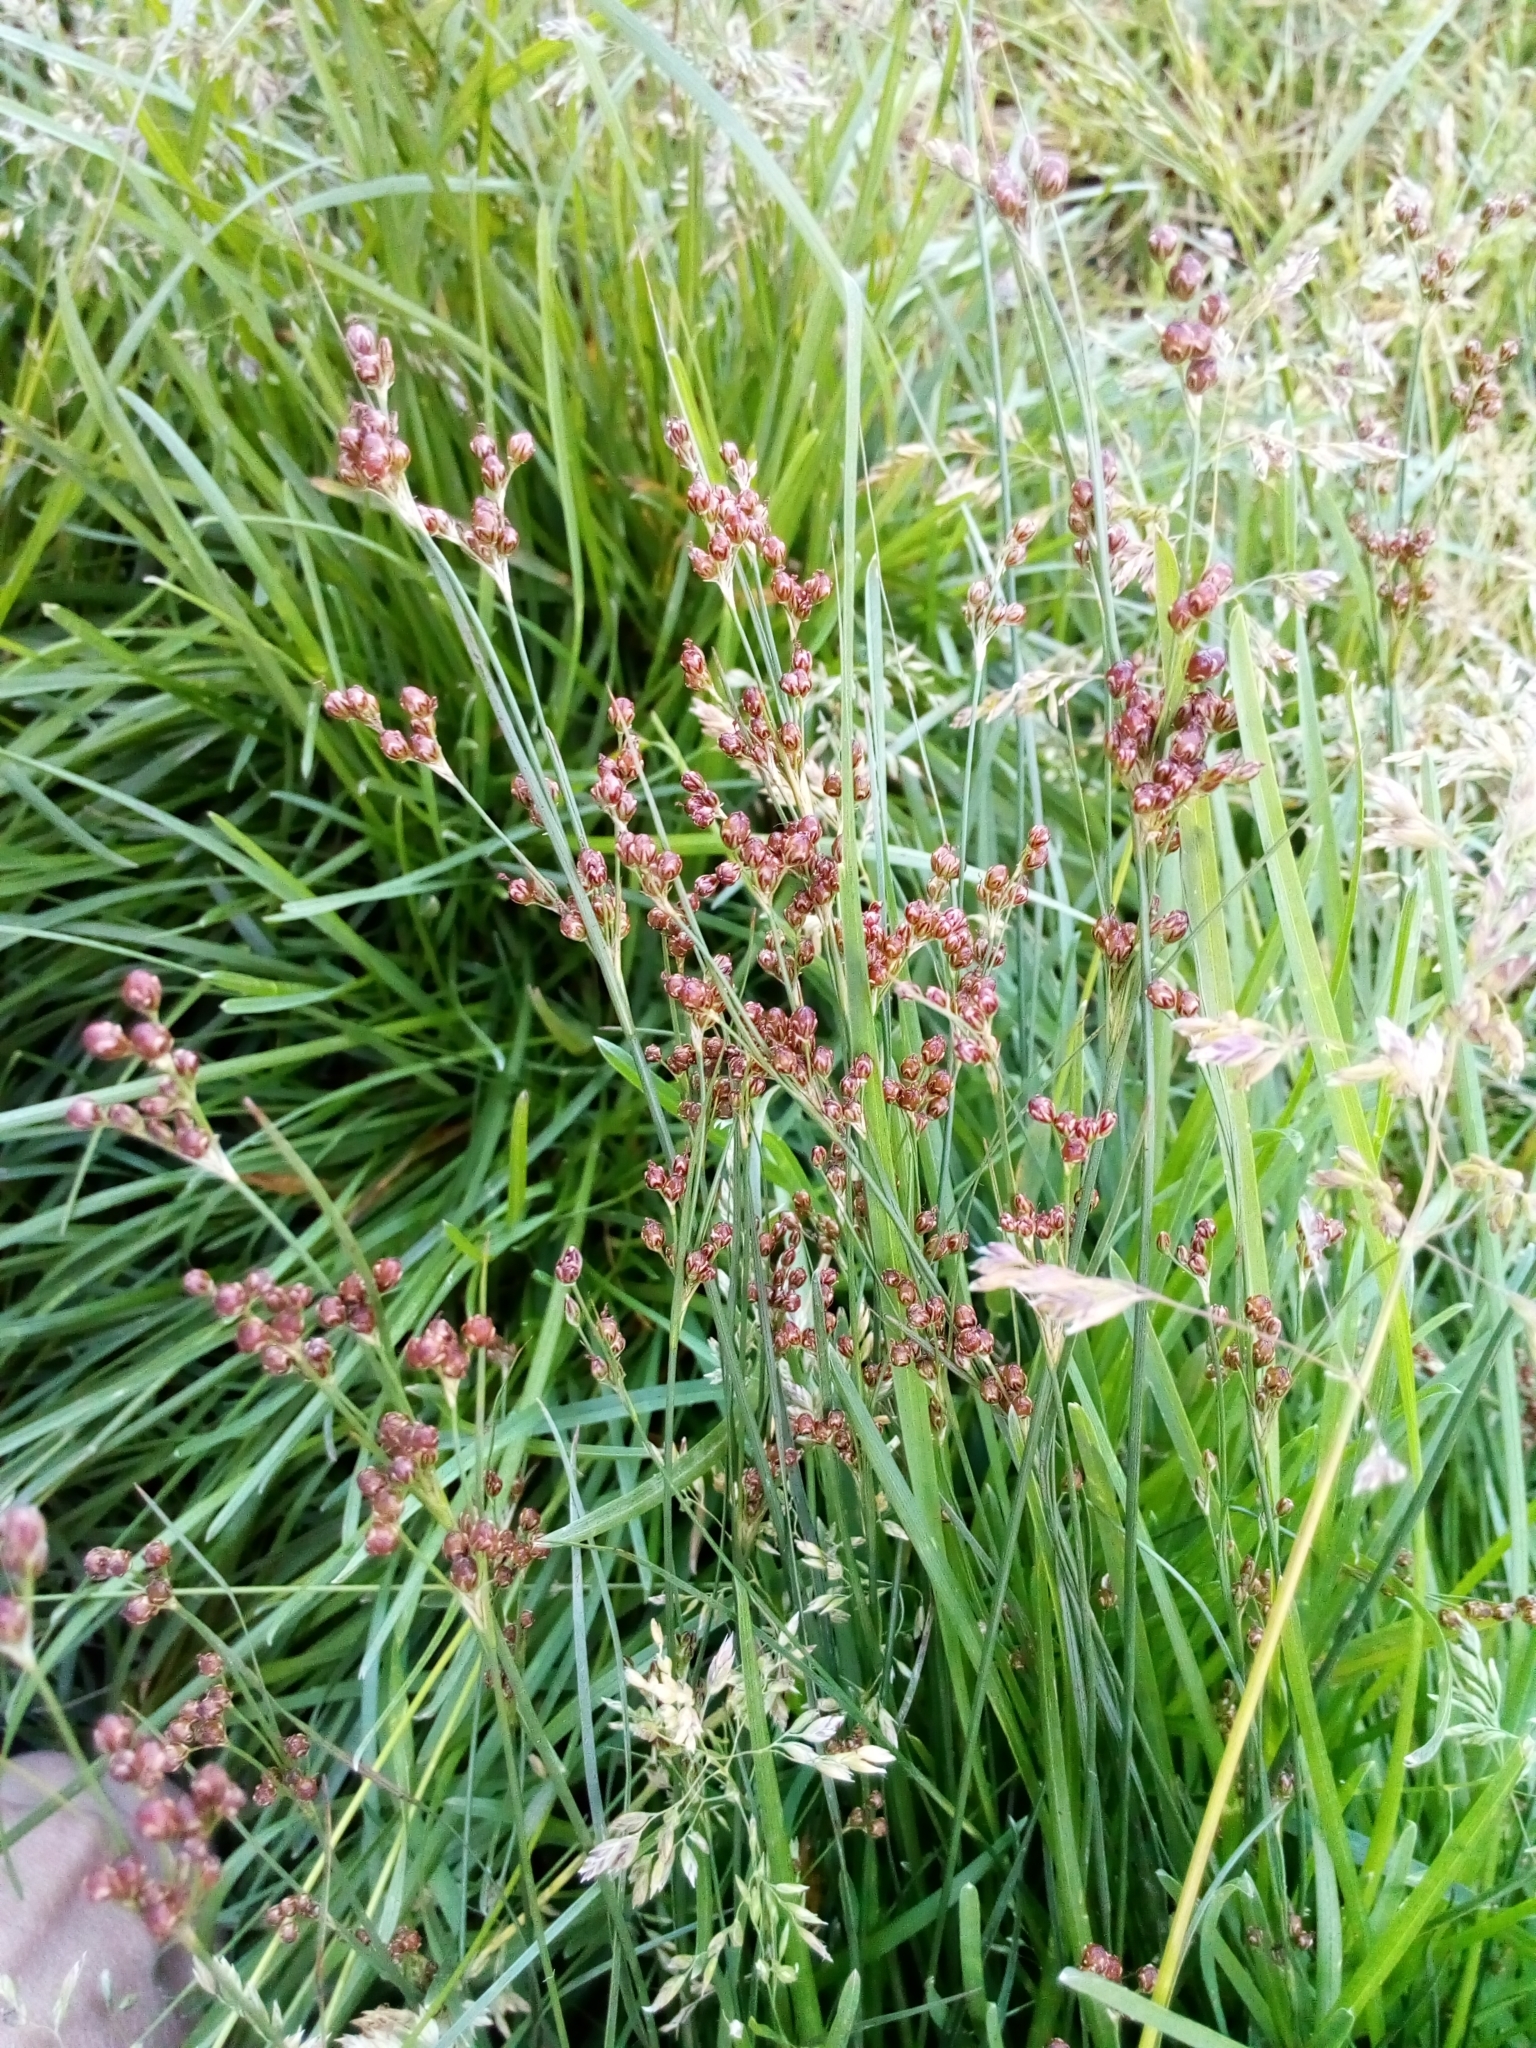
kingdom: Plantae
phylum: Tracheophyta
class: Liliopsida
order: Poales
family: Juncaceae
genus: Juncus
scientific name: Juncus compressus
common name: Round-fruited rush
